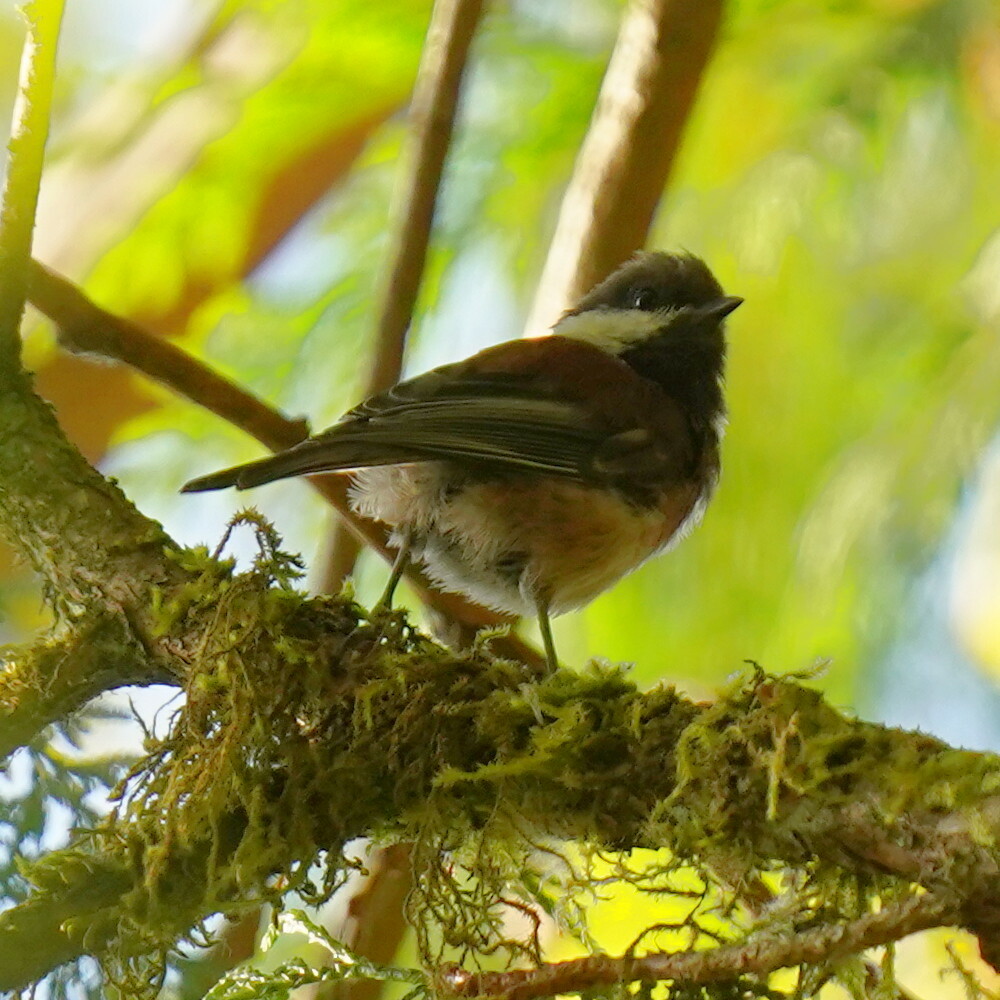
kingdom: Animalia
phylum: Chordata
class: Aves
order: Passeriformes
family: Paridae
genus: Poecile
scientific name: Poecile rufescens
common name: Chestnut-backed chickadee
